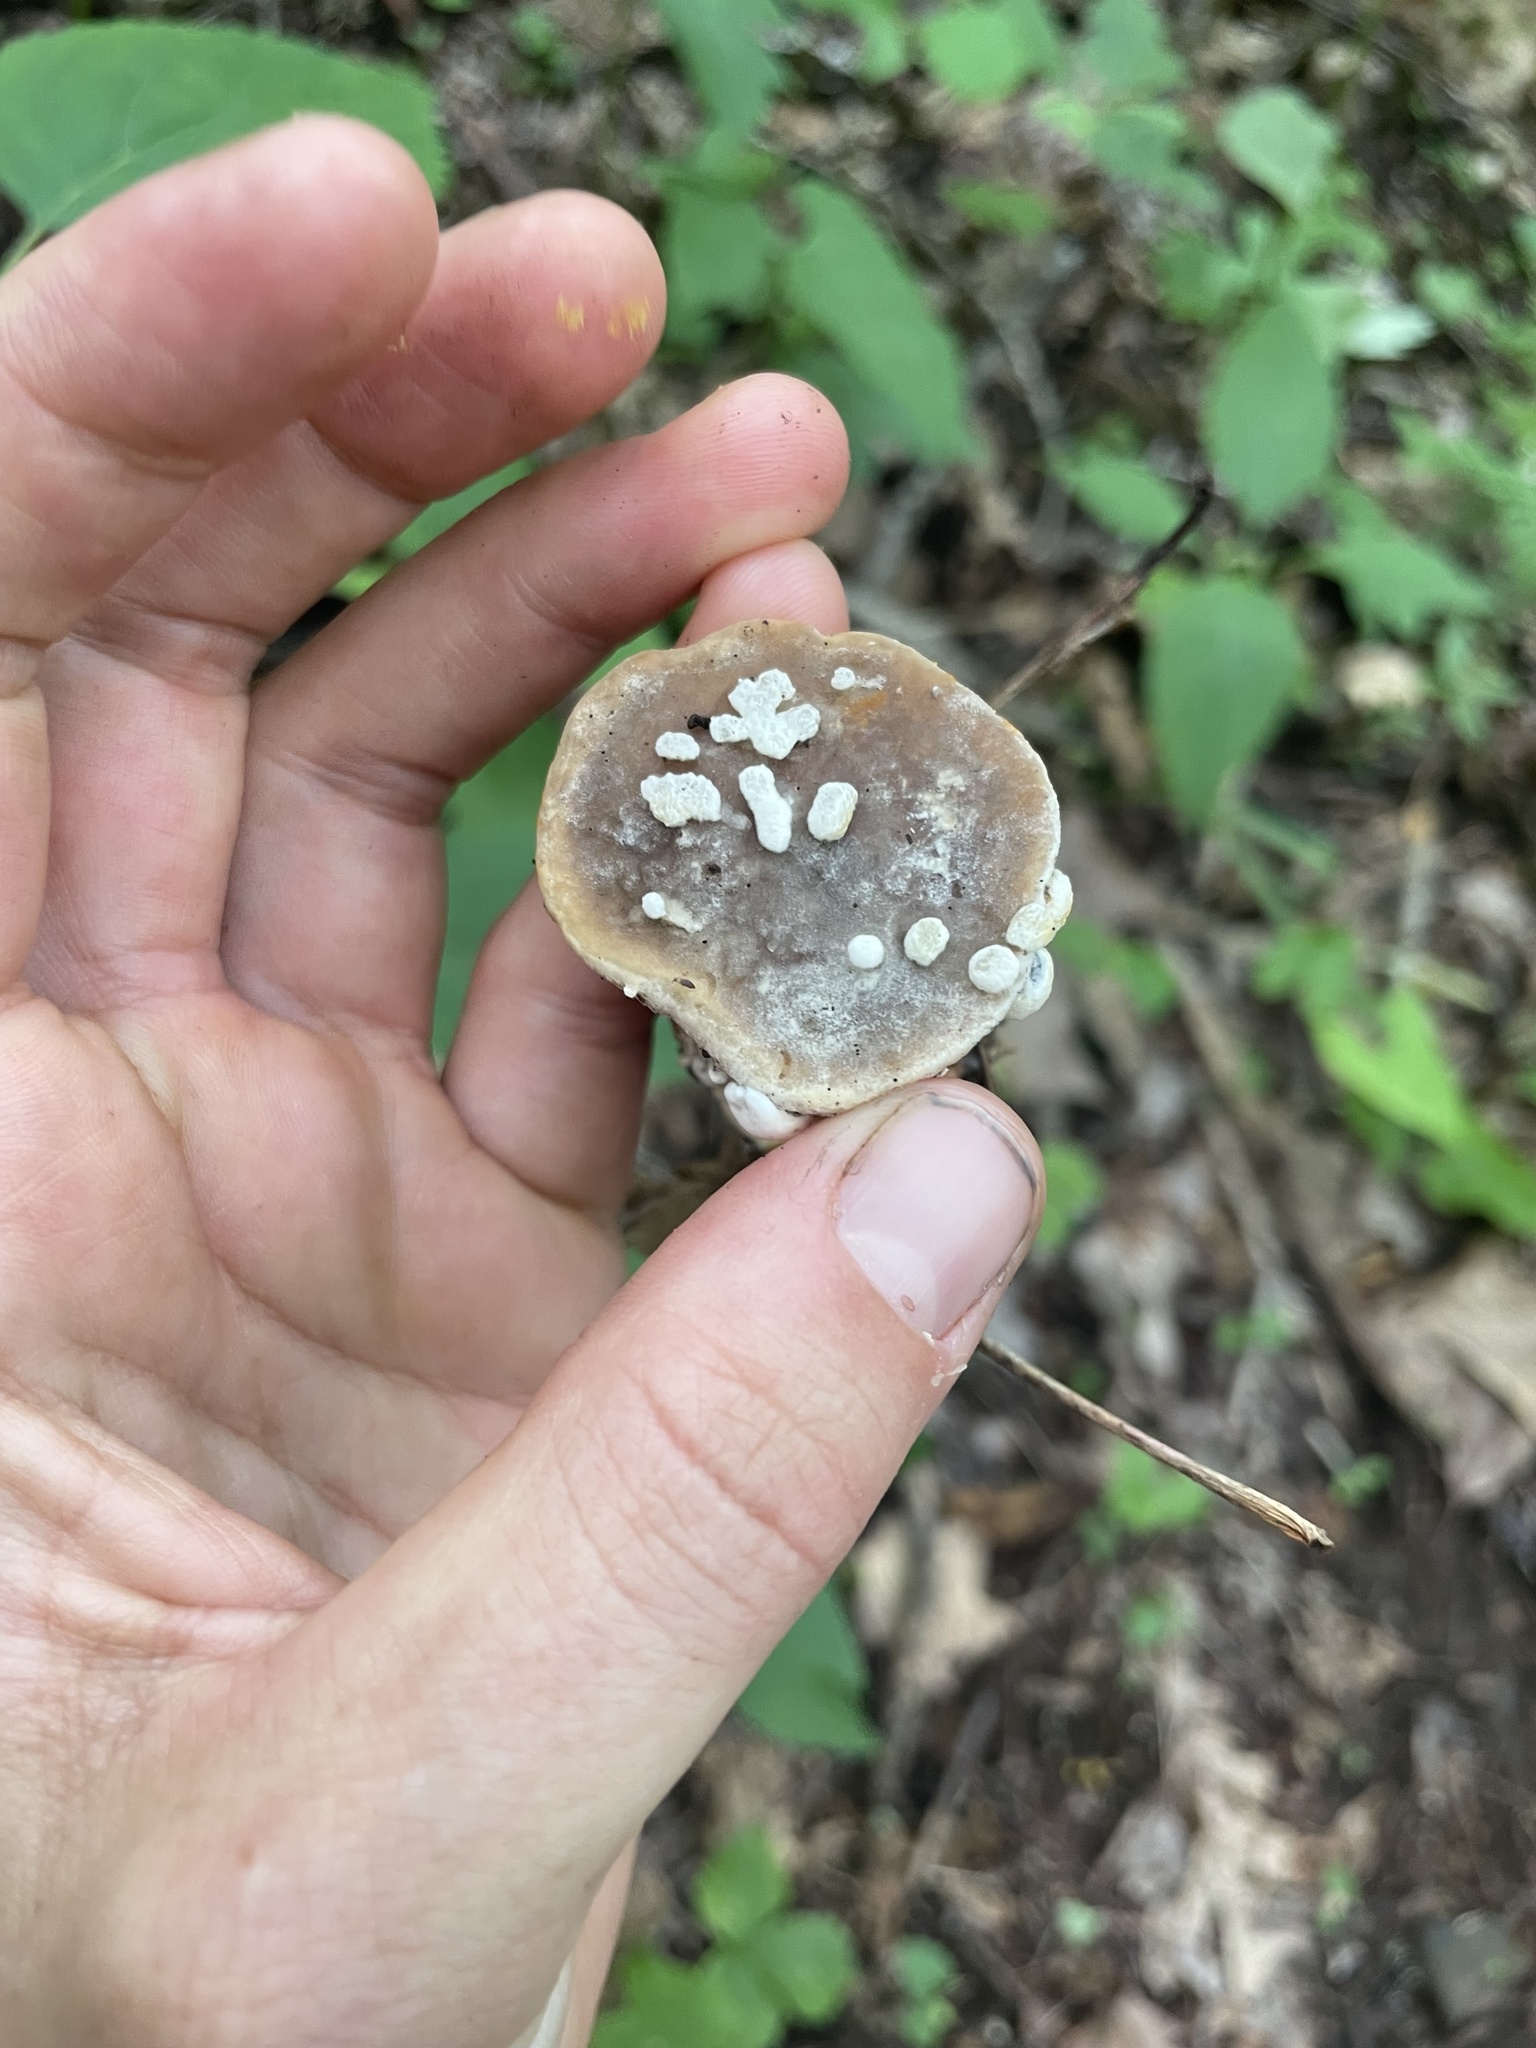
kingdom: Fungi
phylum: Ascomycota
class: Sordariomycetes
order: Hypocreales
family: Hypocreaceae
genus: Hypomyces
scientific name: Hypomyces chrysospermus
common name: Bolete mould
